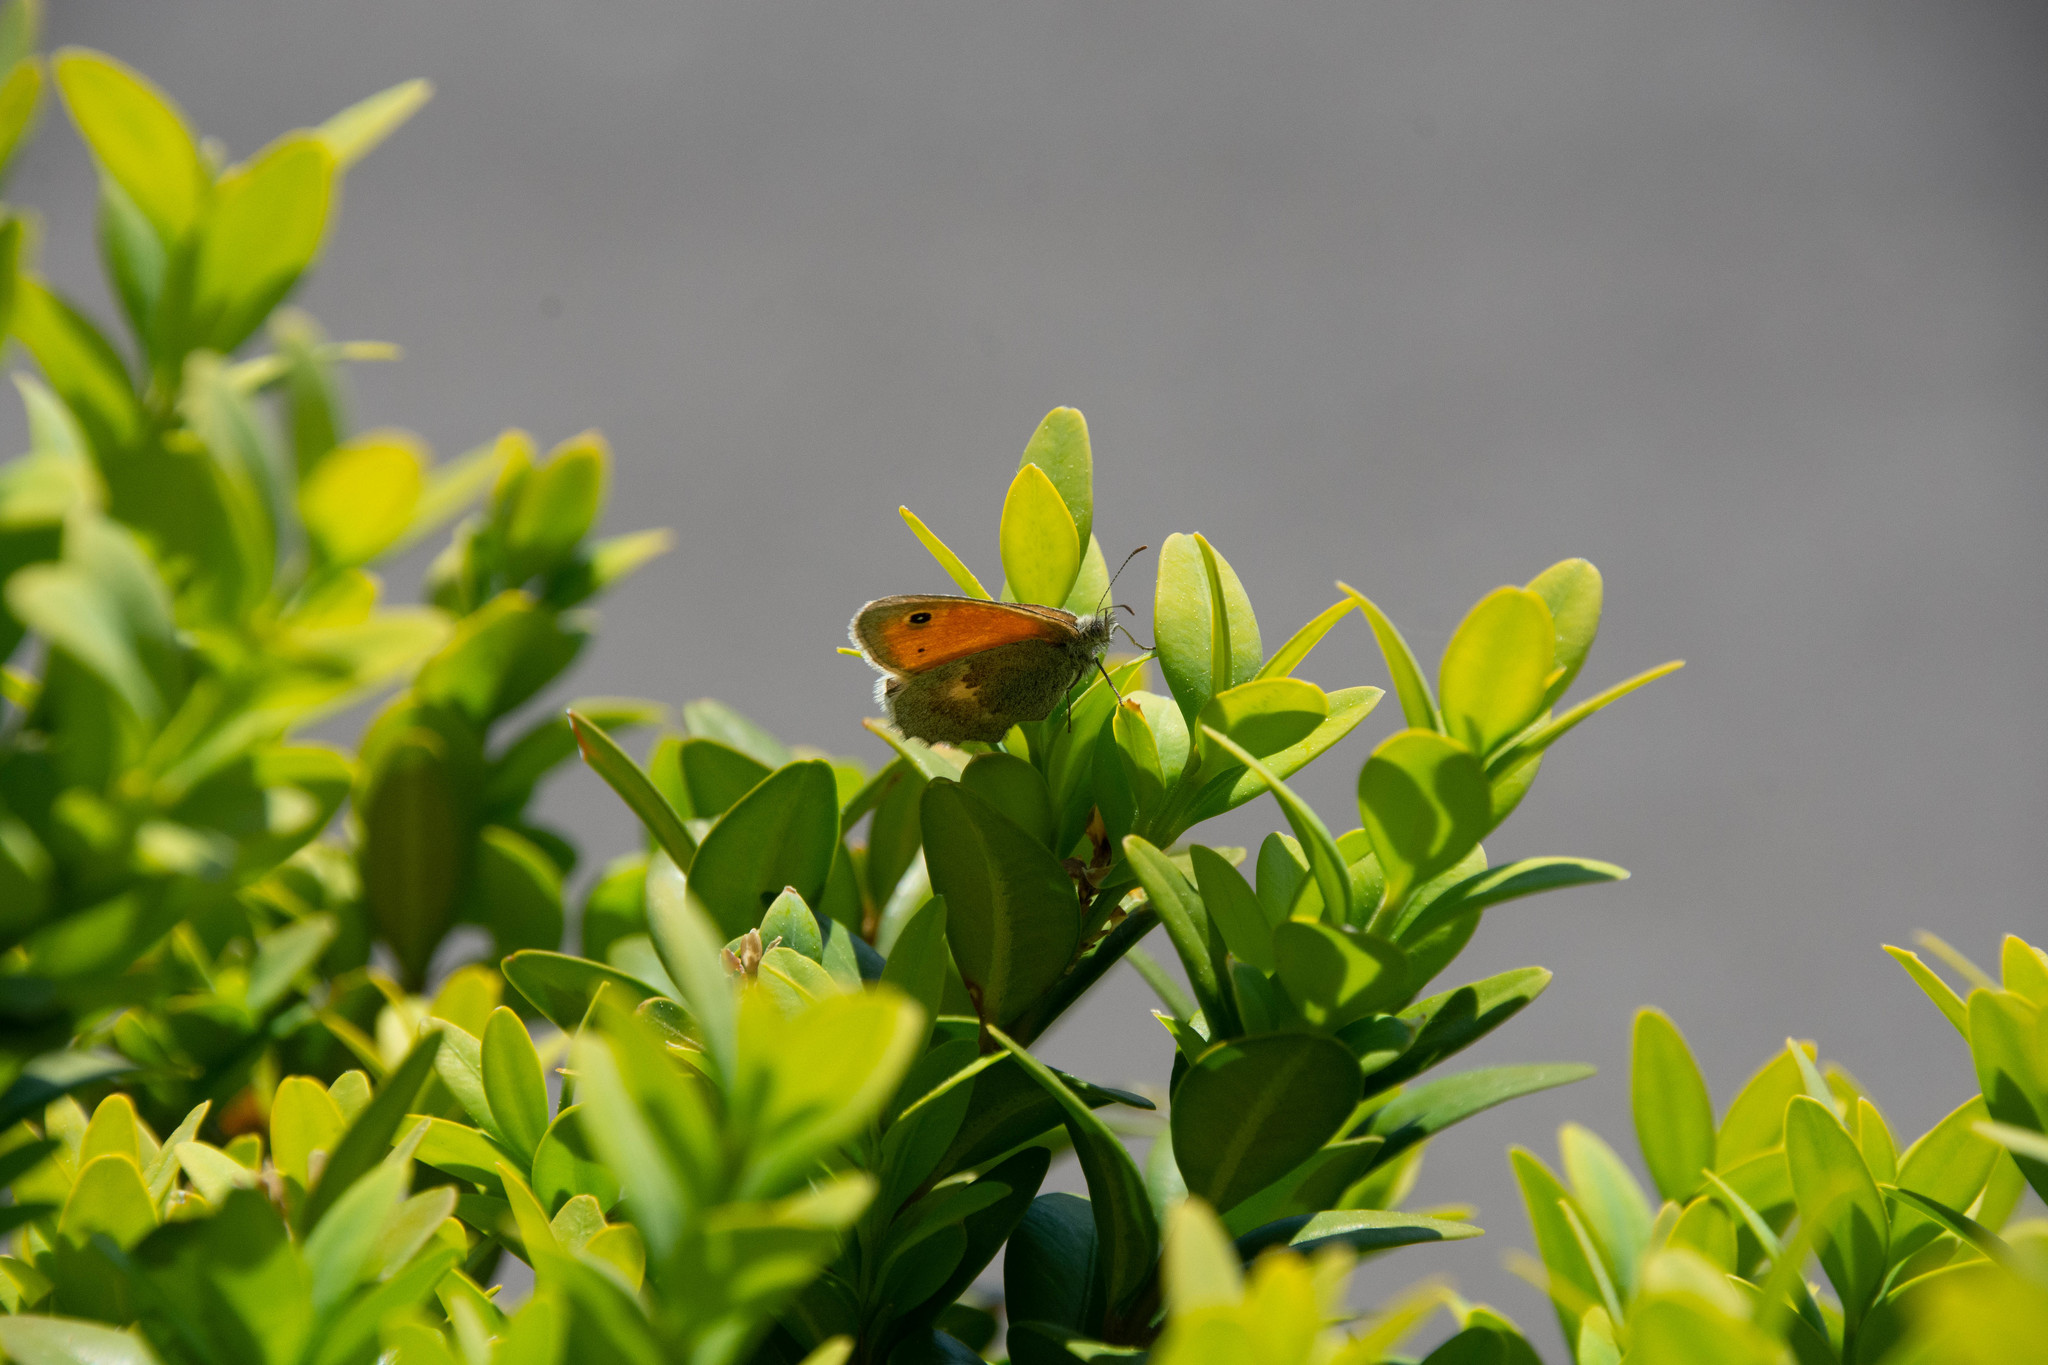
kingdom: Animalia
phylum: Arthropoda
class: Insecta
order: Lepidoptera
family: Nymphalidae
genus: Coenonympha
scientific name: Coenonympha pamphilus
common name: Small heath
